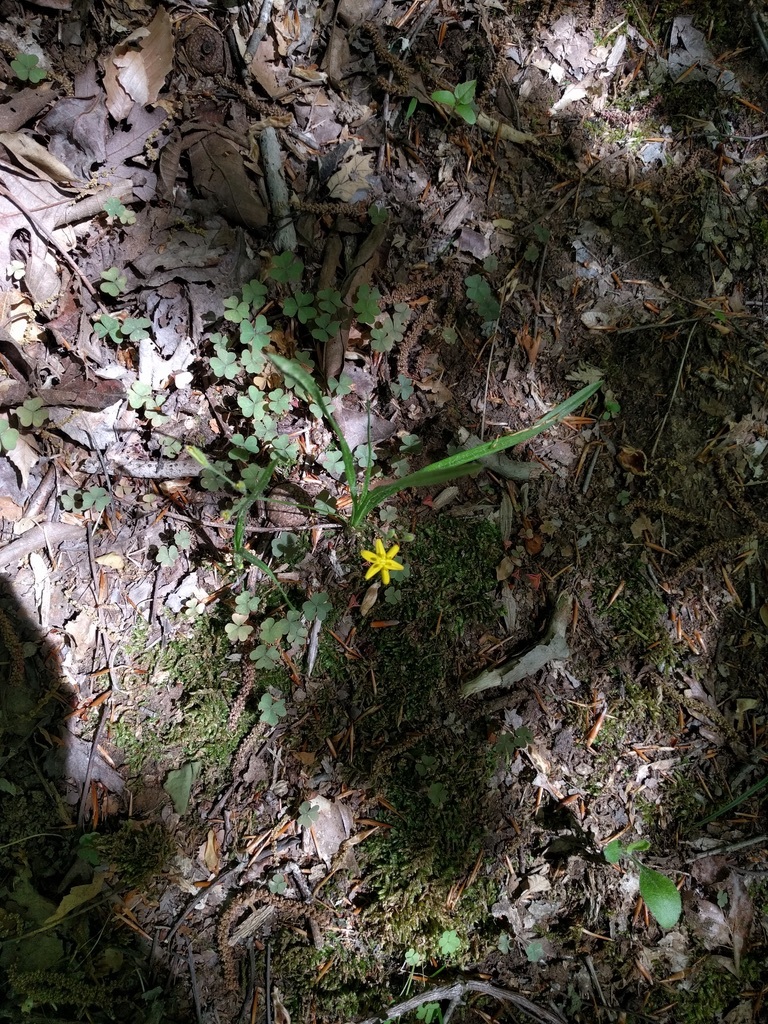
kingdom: Plantae
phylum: Tracheophyta
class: Liliopsida
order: Asparagales
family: Hypoxidaceae
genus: Hypoxis
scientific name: Hypoxis hirsuta
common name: Common goldstar
